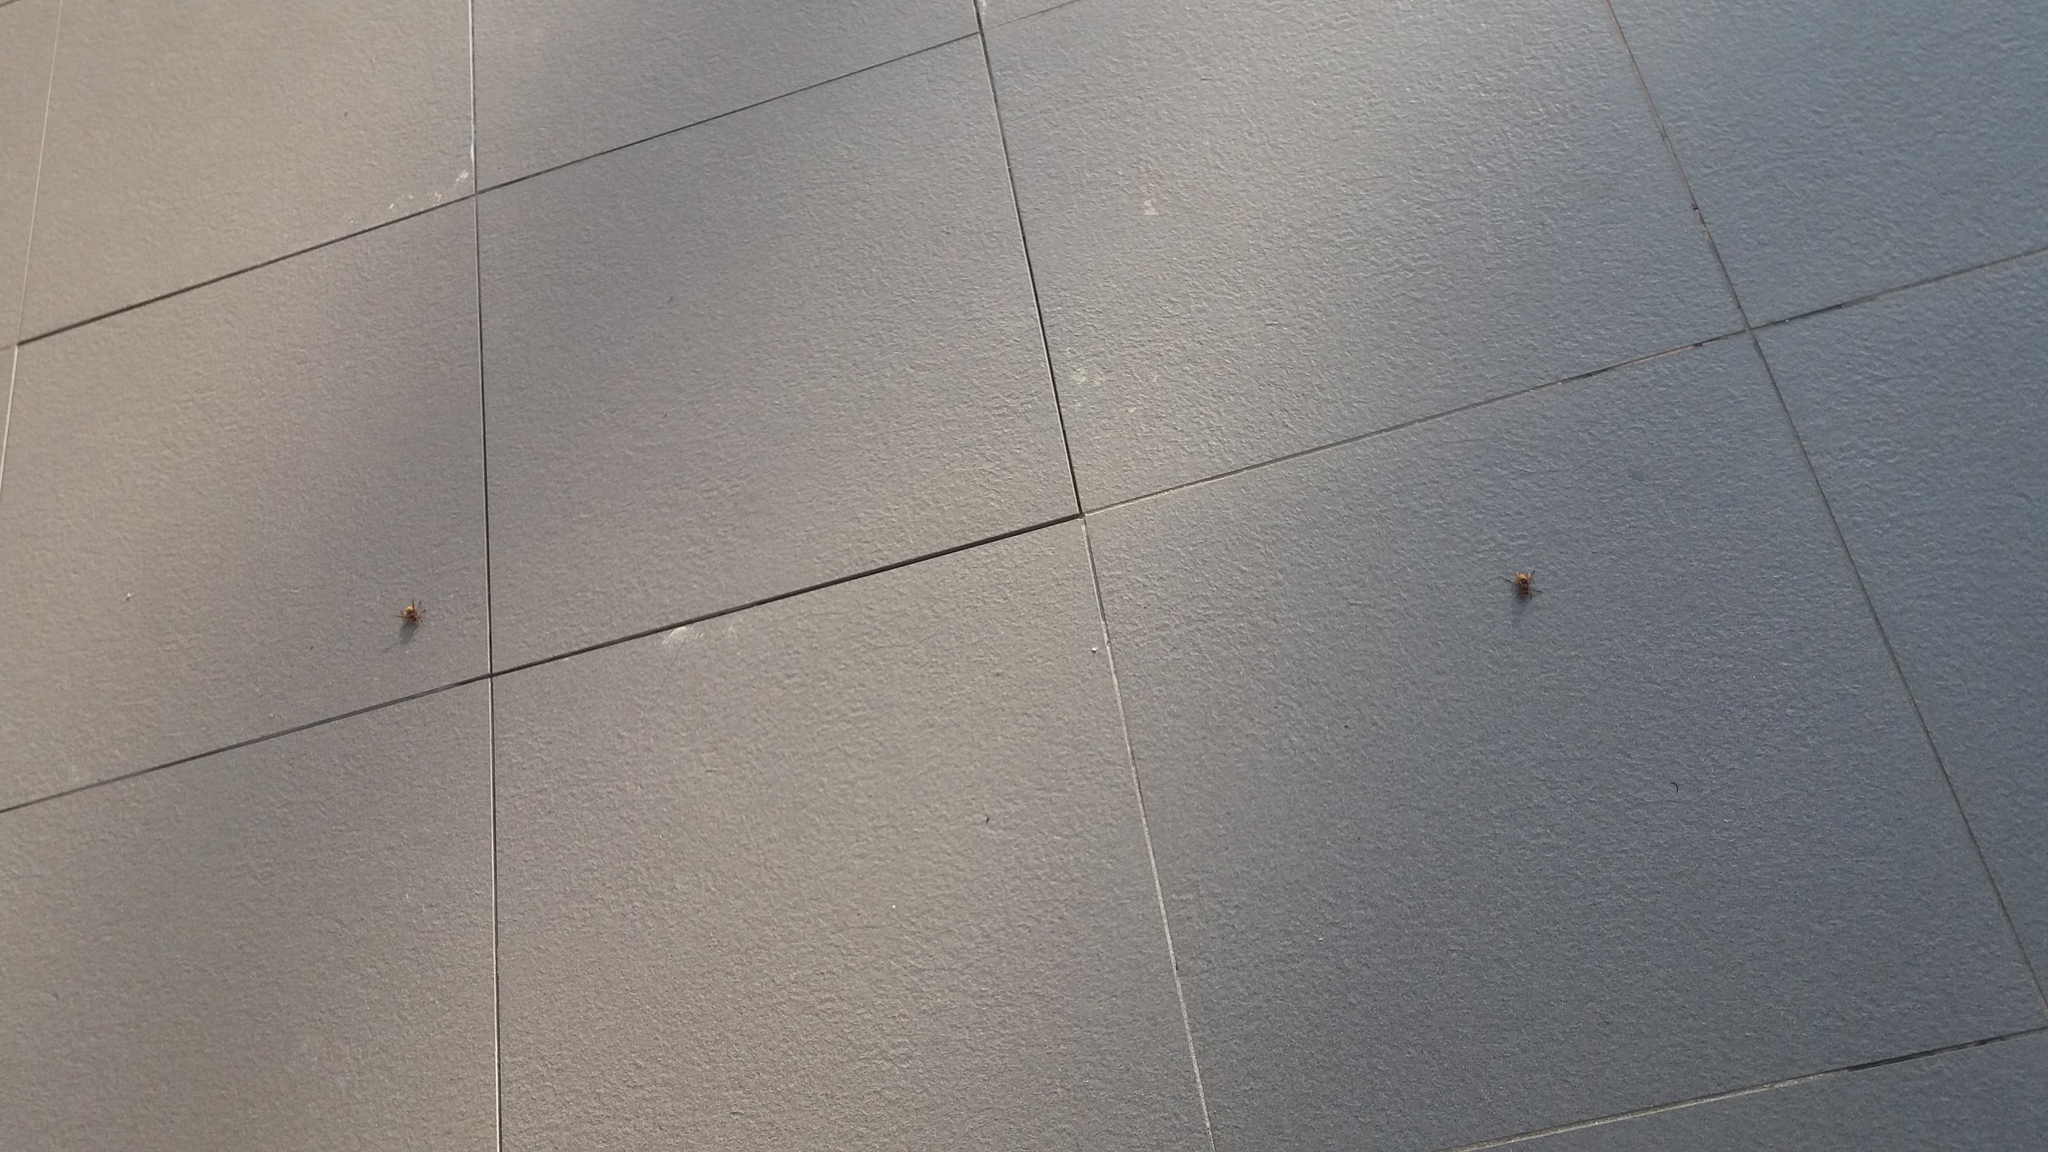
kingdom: Animalia
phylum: Arthropoda
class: Insecta
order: Hymenoptera
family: Vespidae
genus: Vespa
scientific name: Vespa crabro
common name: Hornet
